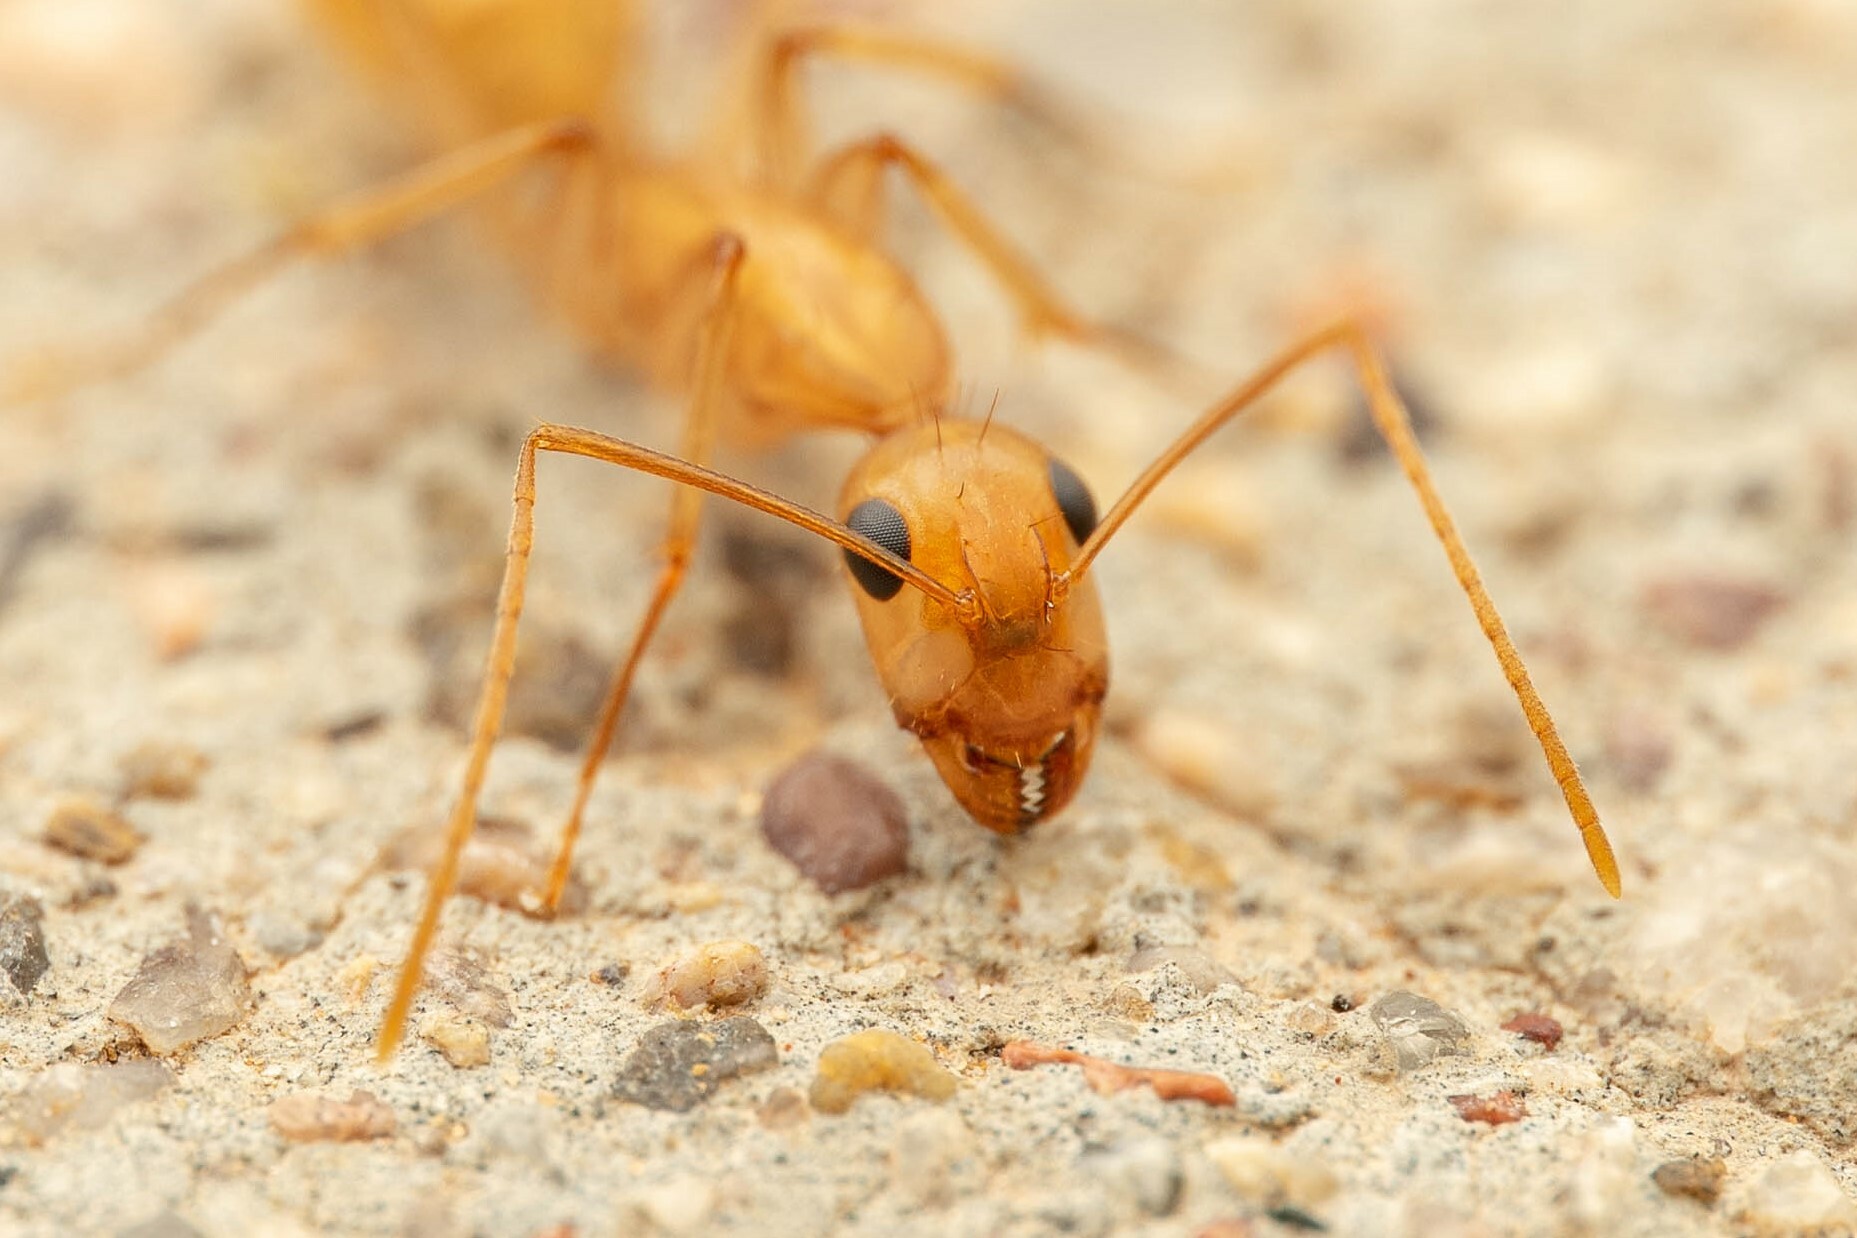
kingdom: Animalia
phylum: Arthropoda
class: Insecta
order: Hymenoptera
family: Formicidae
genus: Camponotus
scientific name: Camponotus fragilis
